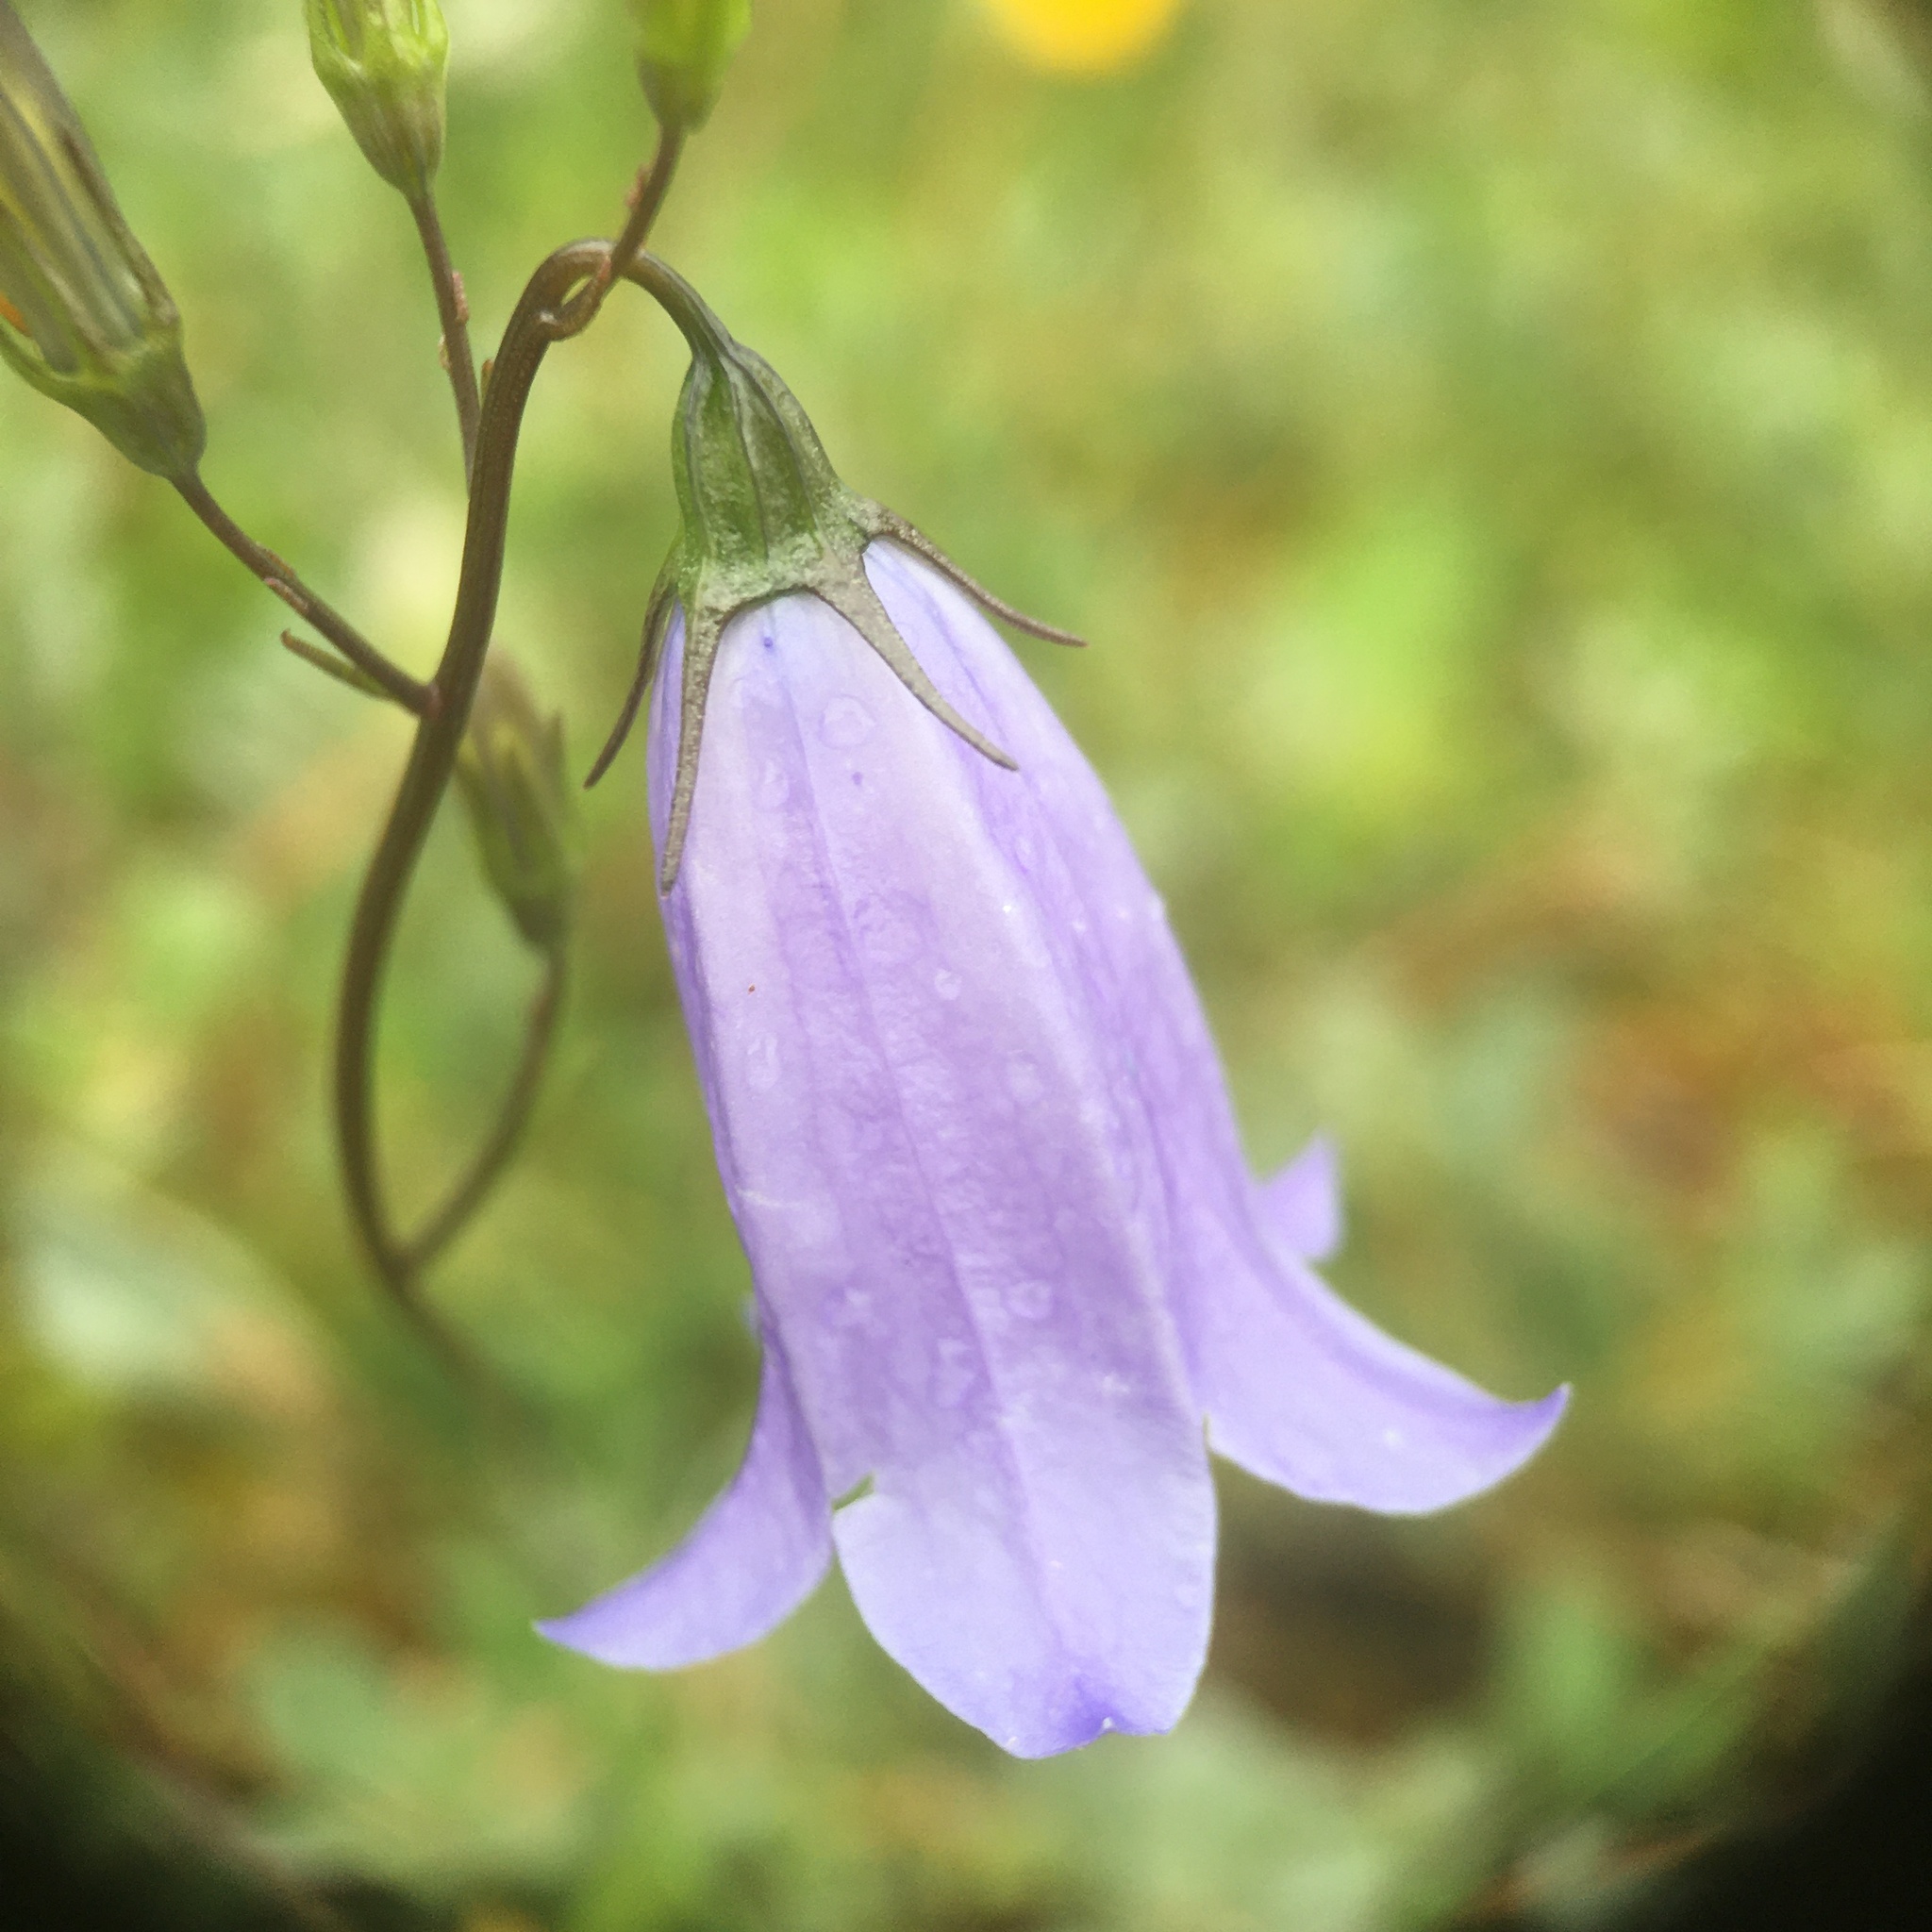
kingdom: Plantae
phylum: Tracheophyta
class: Magnoliopsida
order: Asterales
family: Campanulaceae
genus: Campanula
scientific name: Campanula rotundifolia
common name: Harebell
